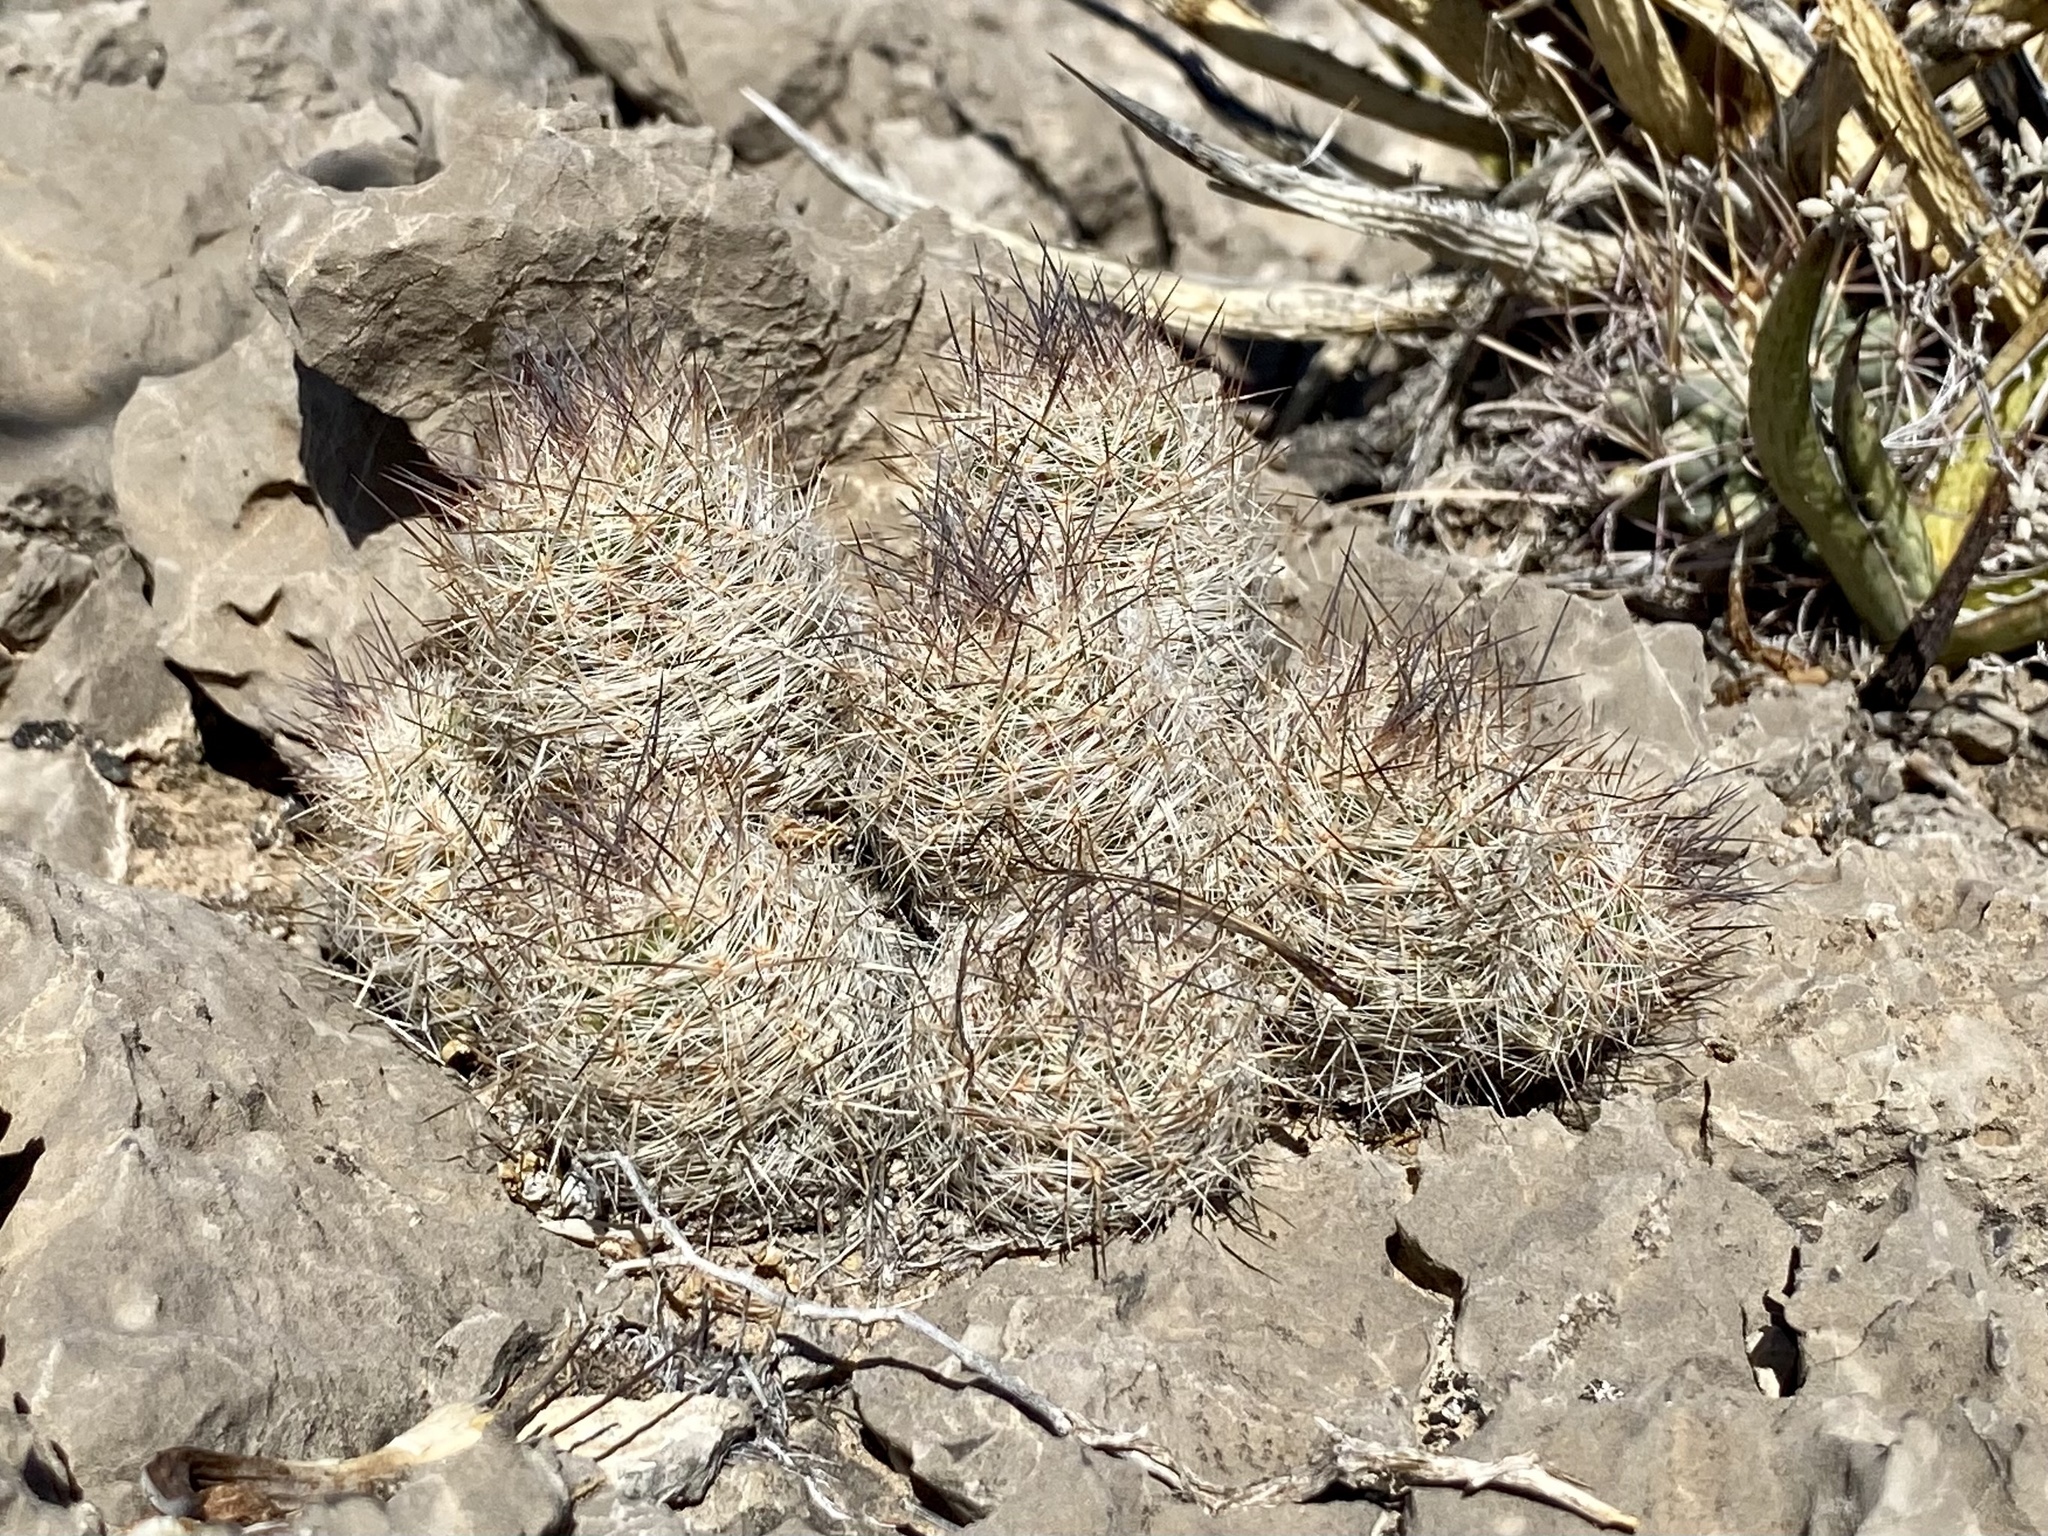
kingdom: Plantae
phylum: Tracheophyta
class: Magnoliopsida
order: Caryophyllales
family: Cactaceae
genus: Pelecyphora
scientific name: Pelecyphora tuberculosa
